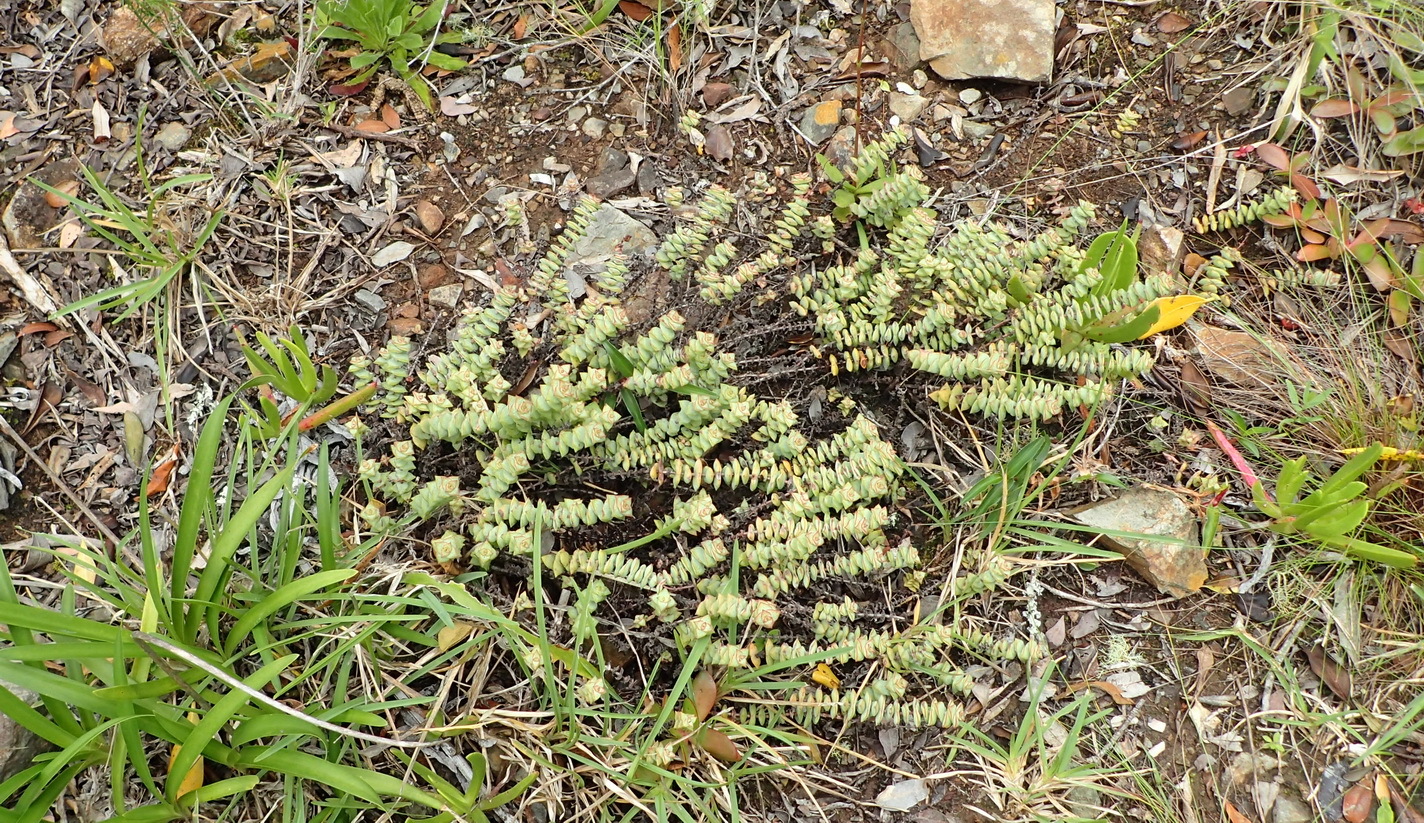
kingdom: Plantae
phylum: Tracheophyta
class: Magnoliopsida
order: Saxifragales
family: Crassulaceae
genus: Crassula
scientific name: Crassula perforata
